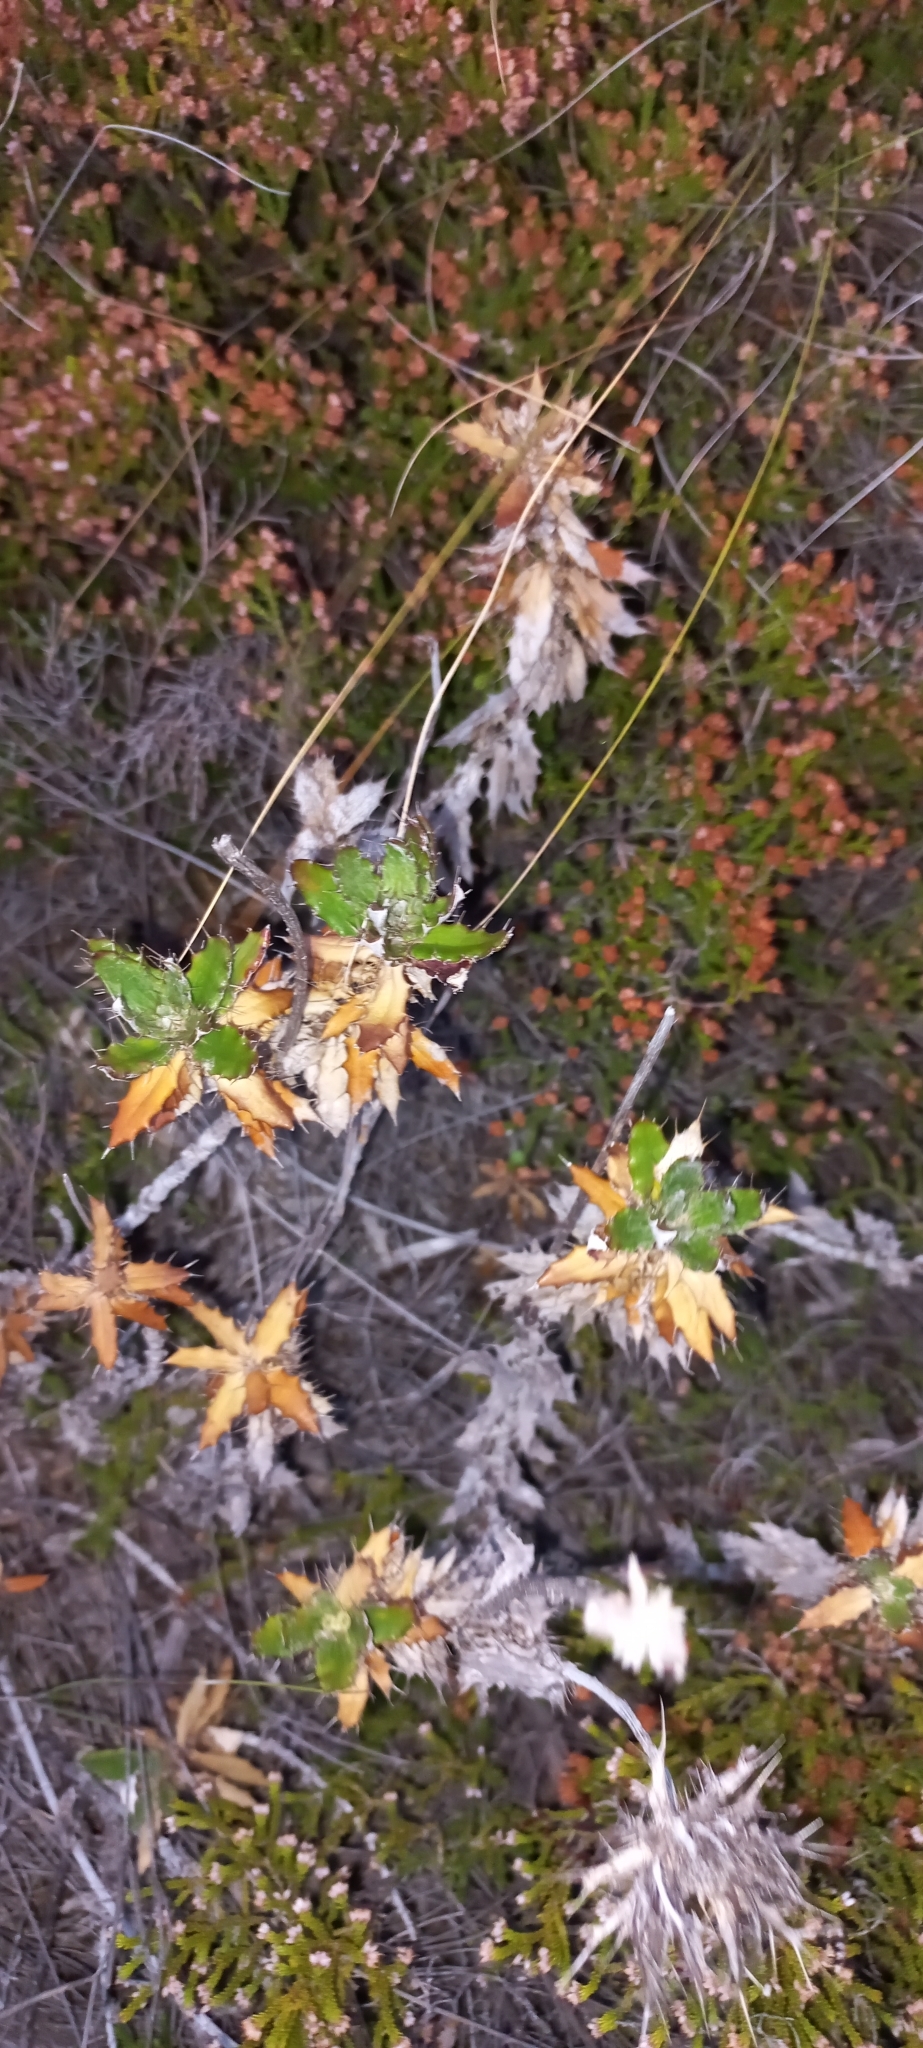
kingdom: Plantae
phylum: Tracheophyta
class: Magnoliopsida
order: Asterales
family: Asteraceae
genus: Berkheya
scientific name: Berkheya barbata
